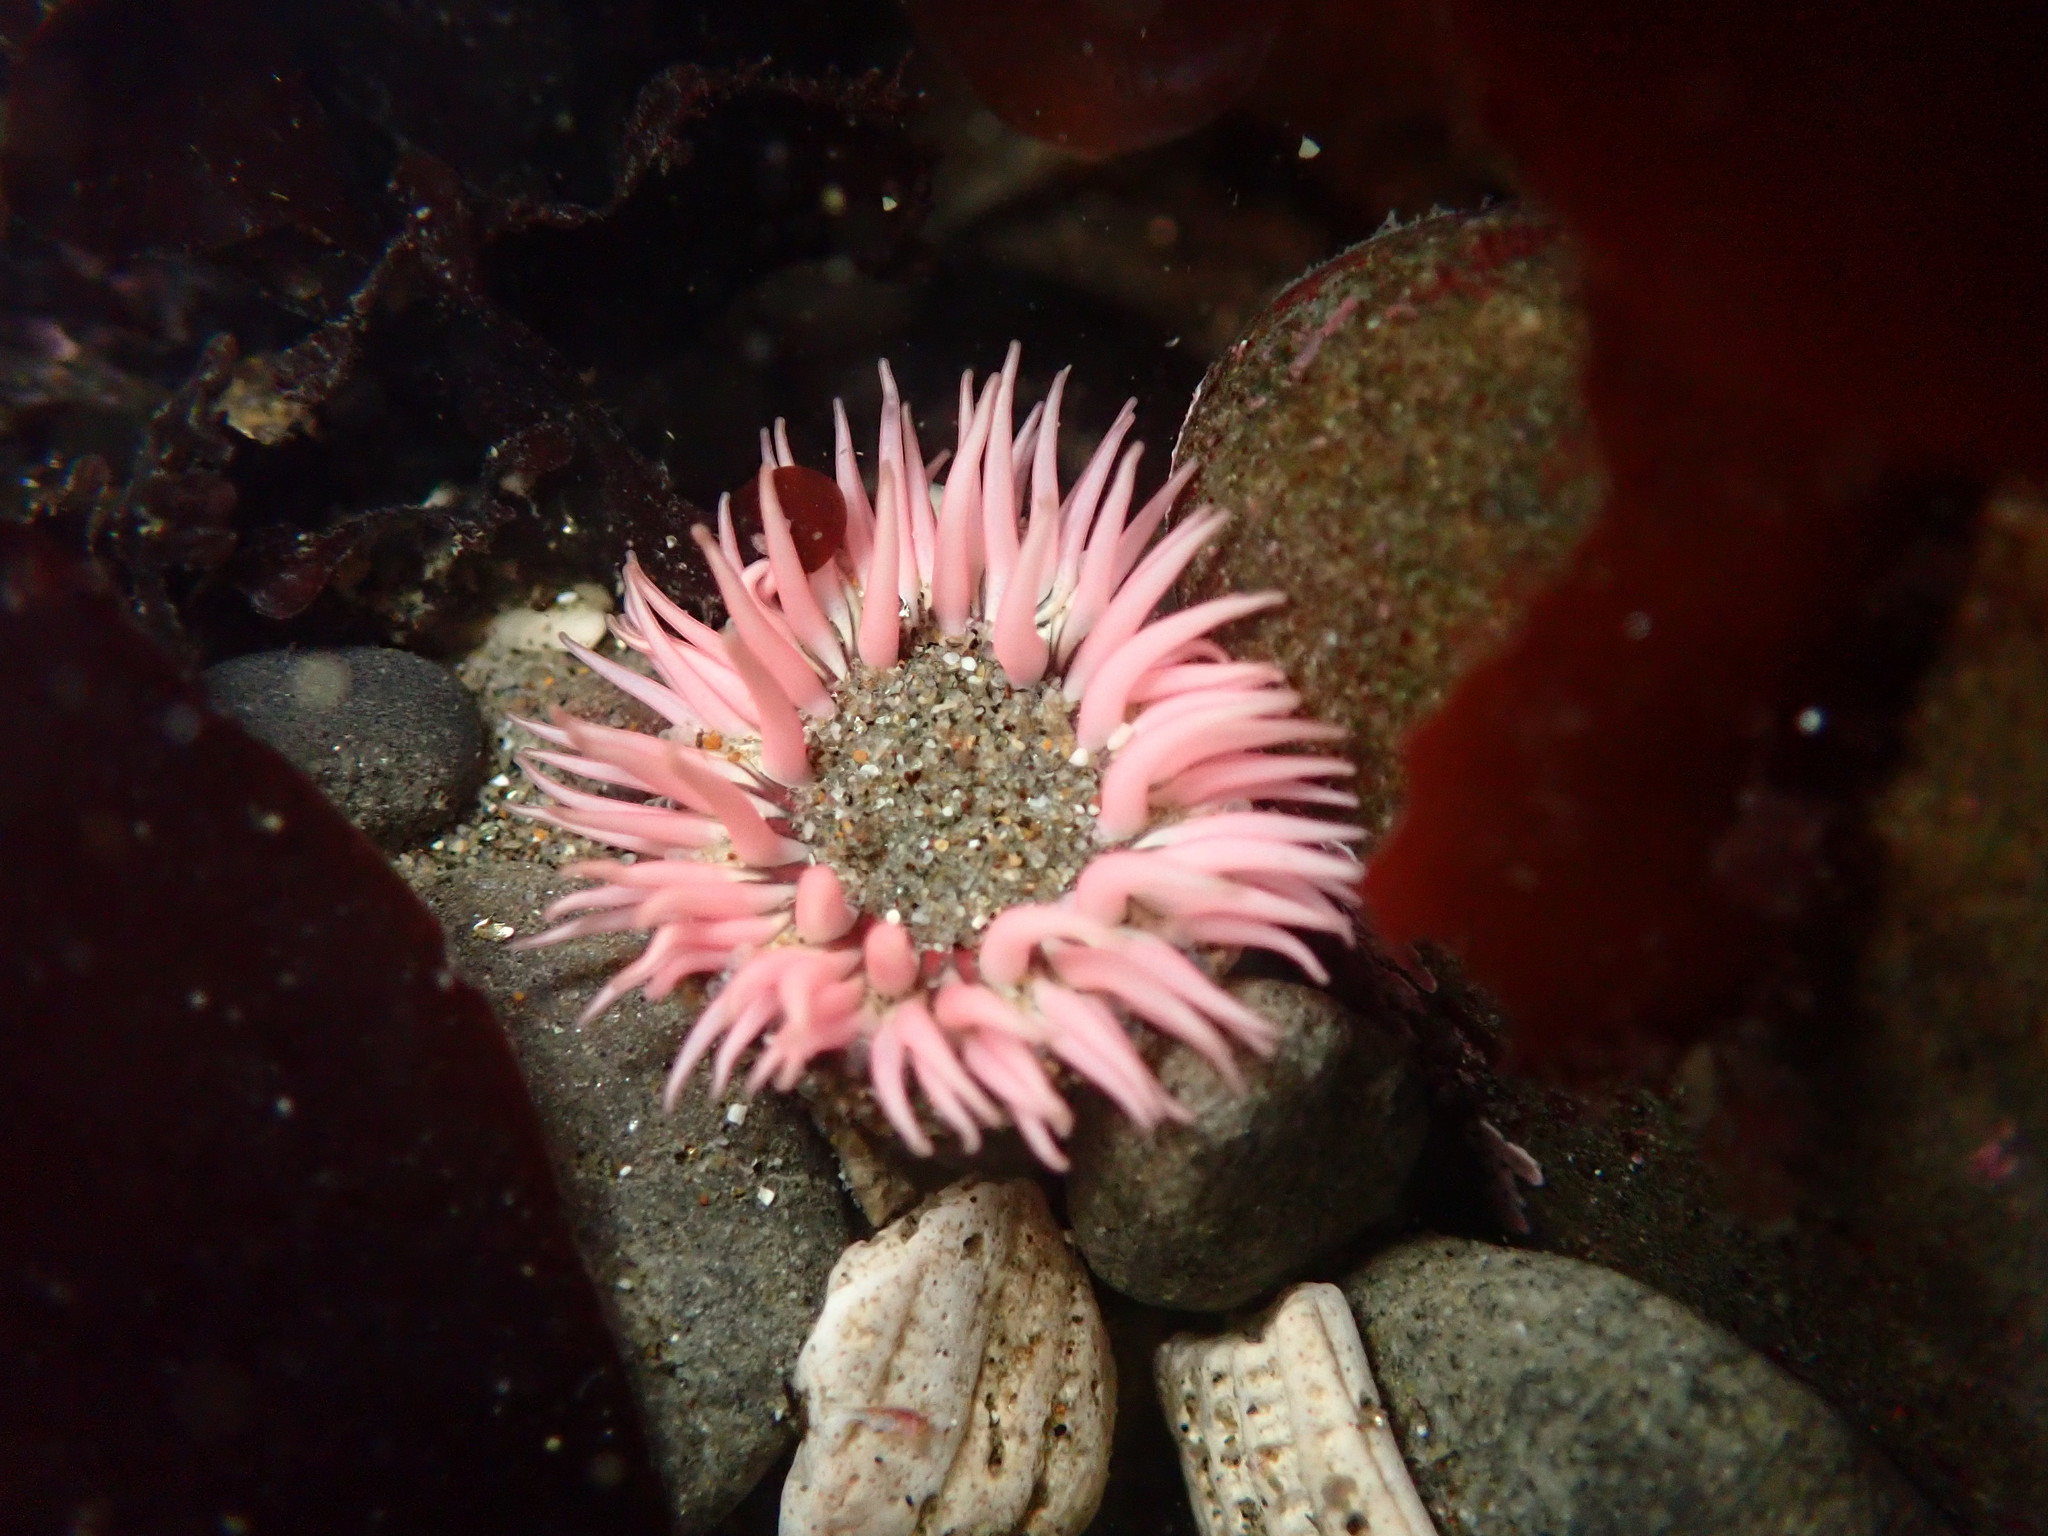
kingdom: Animalia
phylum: Cnidaria
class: Anthozoa
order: Actiniaria
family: Actiniidae
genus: Anthopleura
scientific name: Anthopleura artemisia
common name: Buried sea anemone
